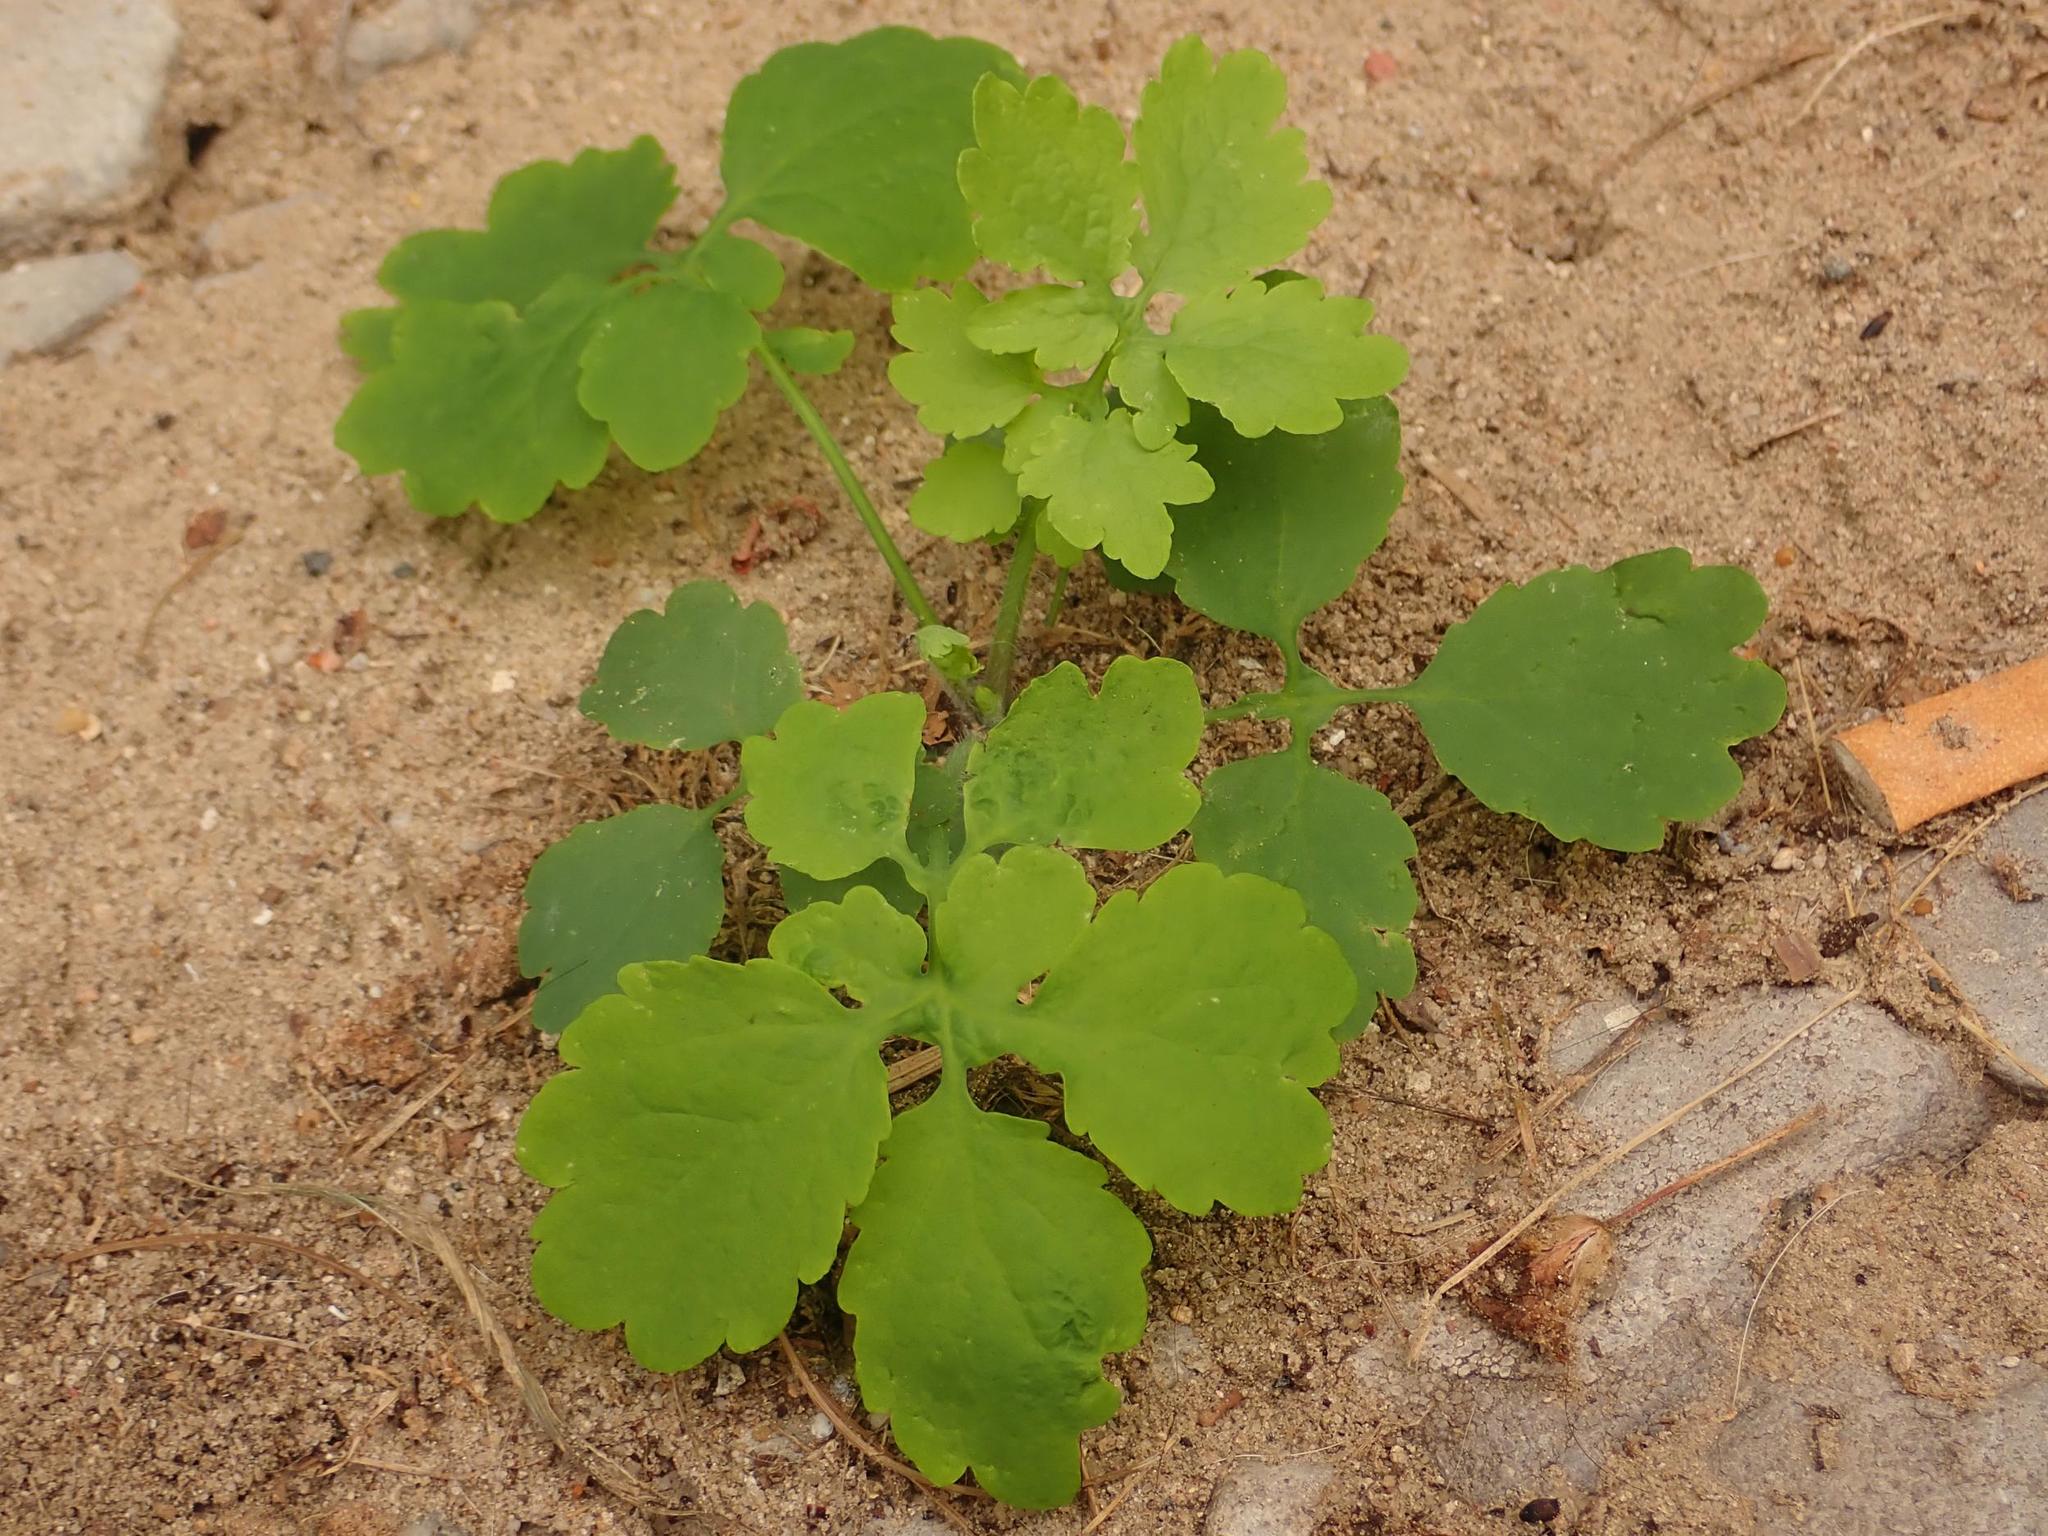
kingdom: Plantae
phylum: Tracheophyta
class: Magnoliopsida
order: Ranunculales
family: Papaveraceae
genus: Chelidonium
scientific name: Chelidonium majus
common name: Greater celandine
